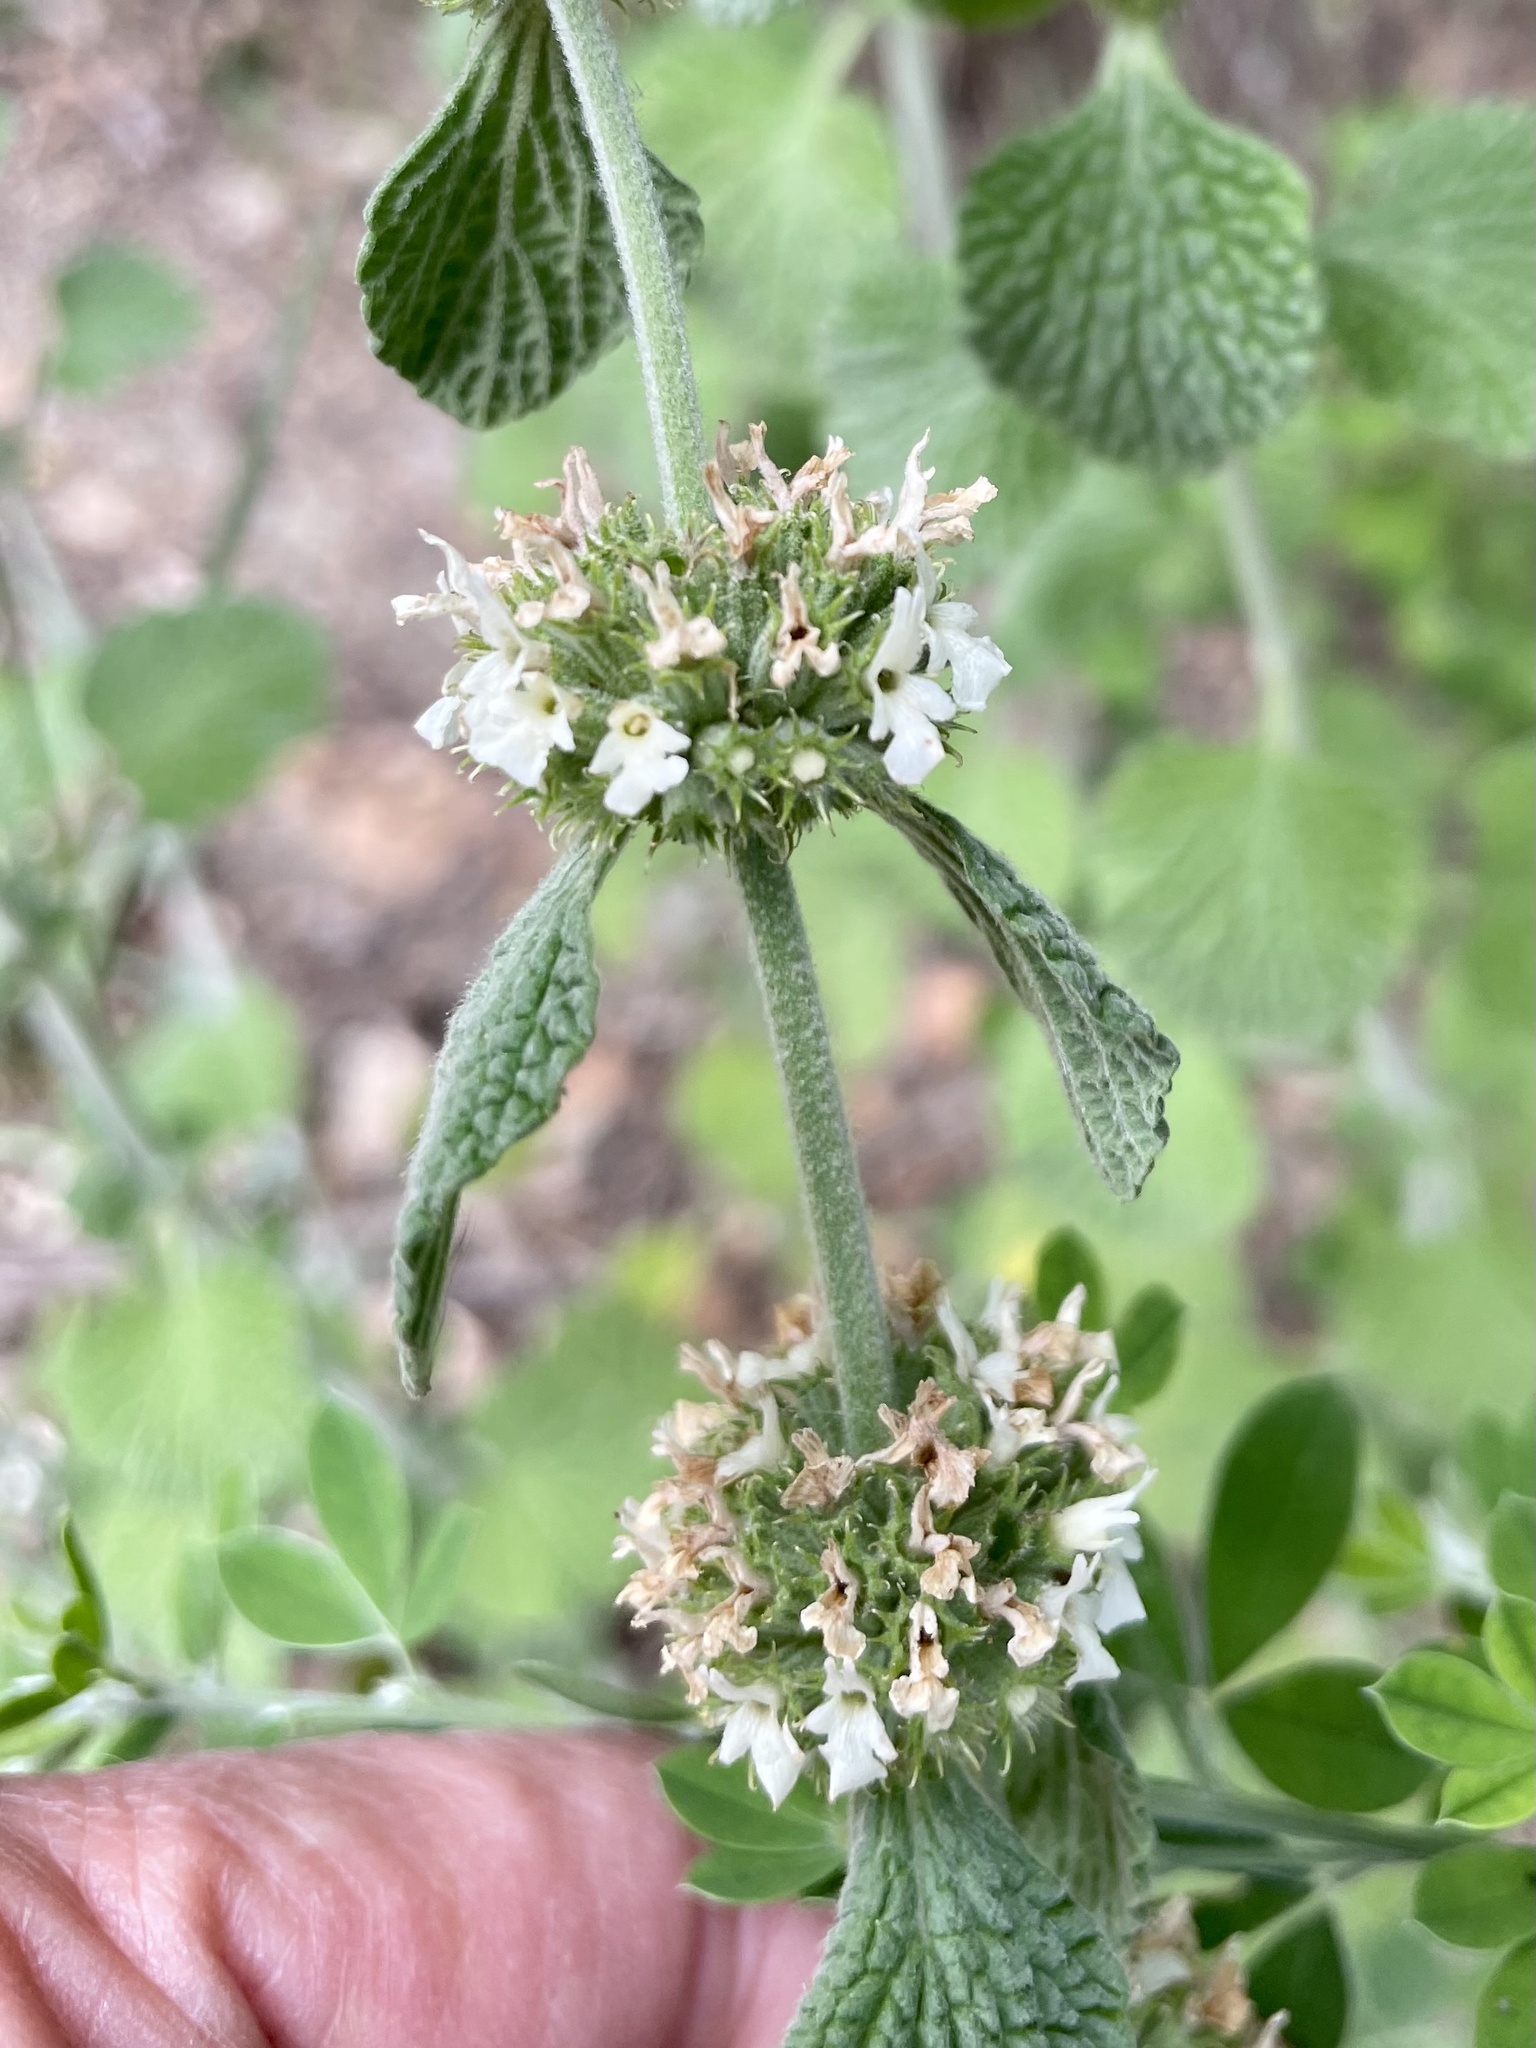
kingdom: Plantae
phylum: Tracheophyta
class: Magnoliopsida
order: Lamiales
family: Lamiaceae
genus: Marrubium
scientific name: Marrubium vulgare
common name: Horehound
